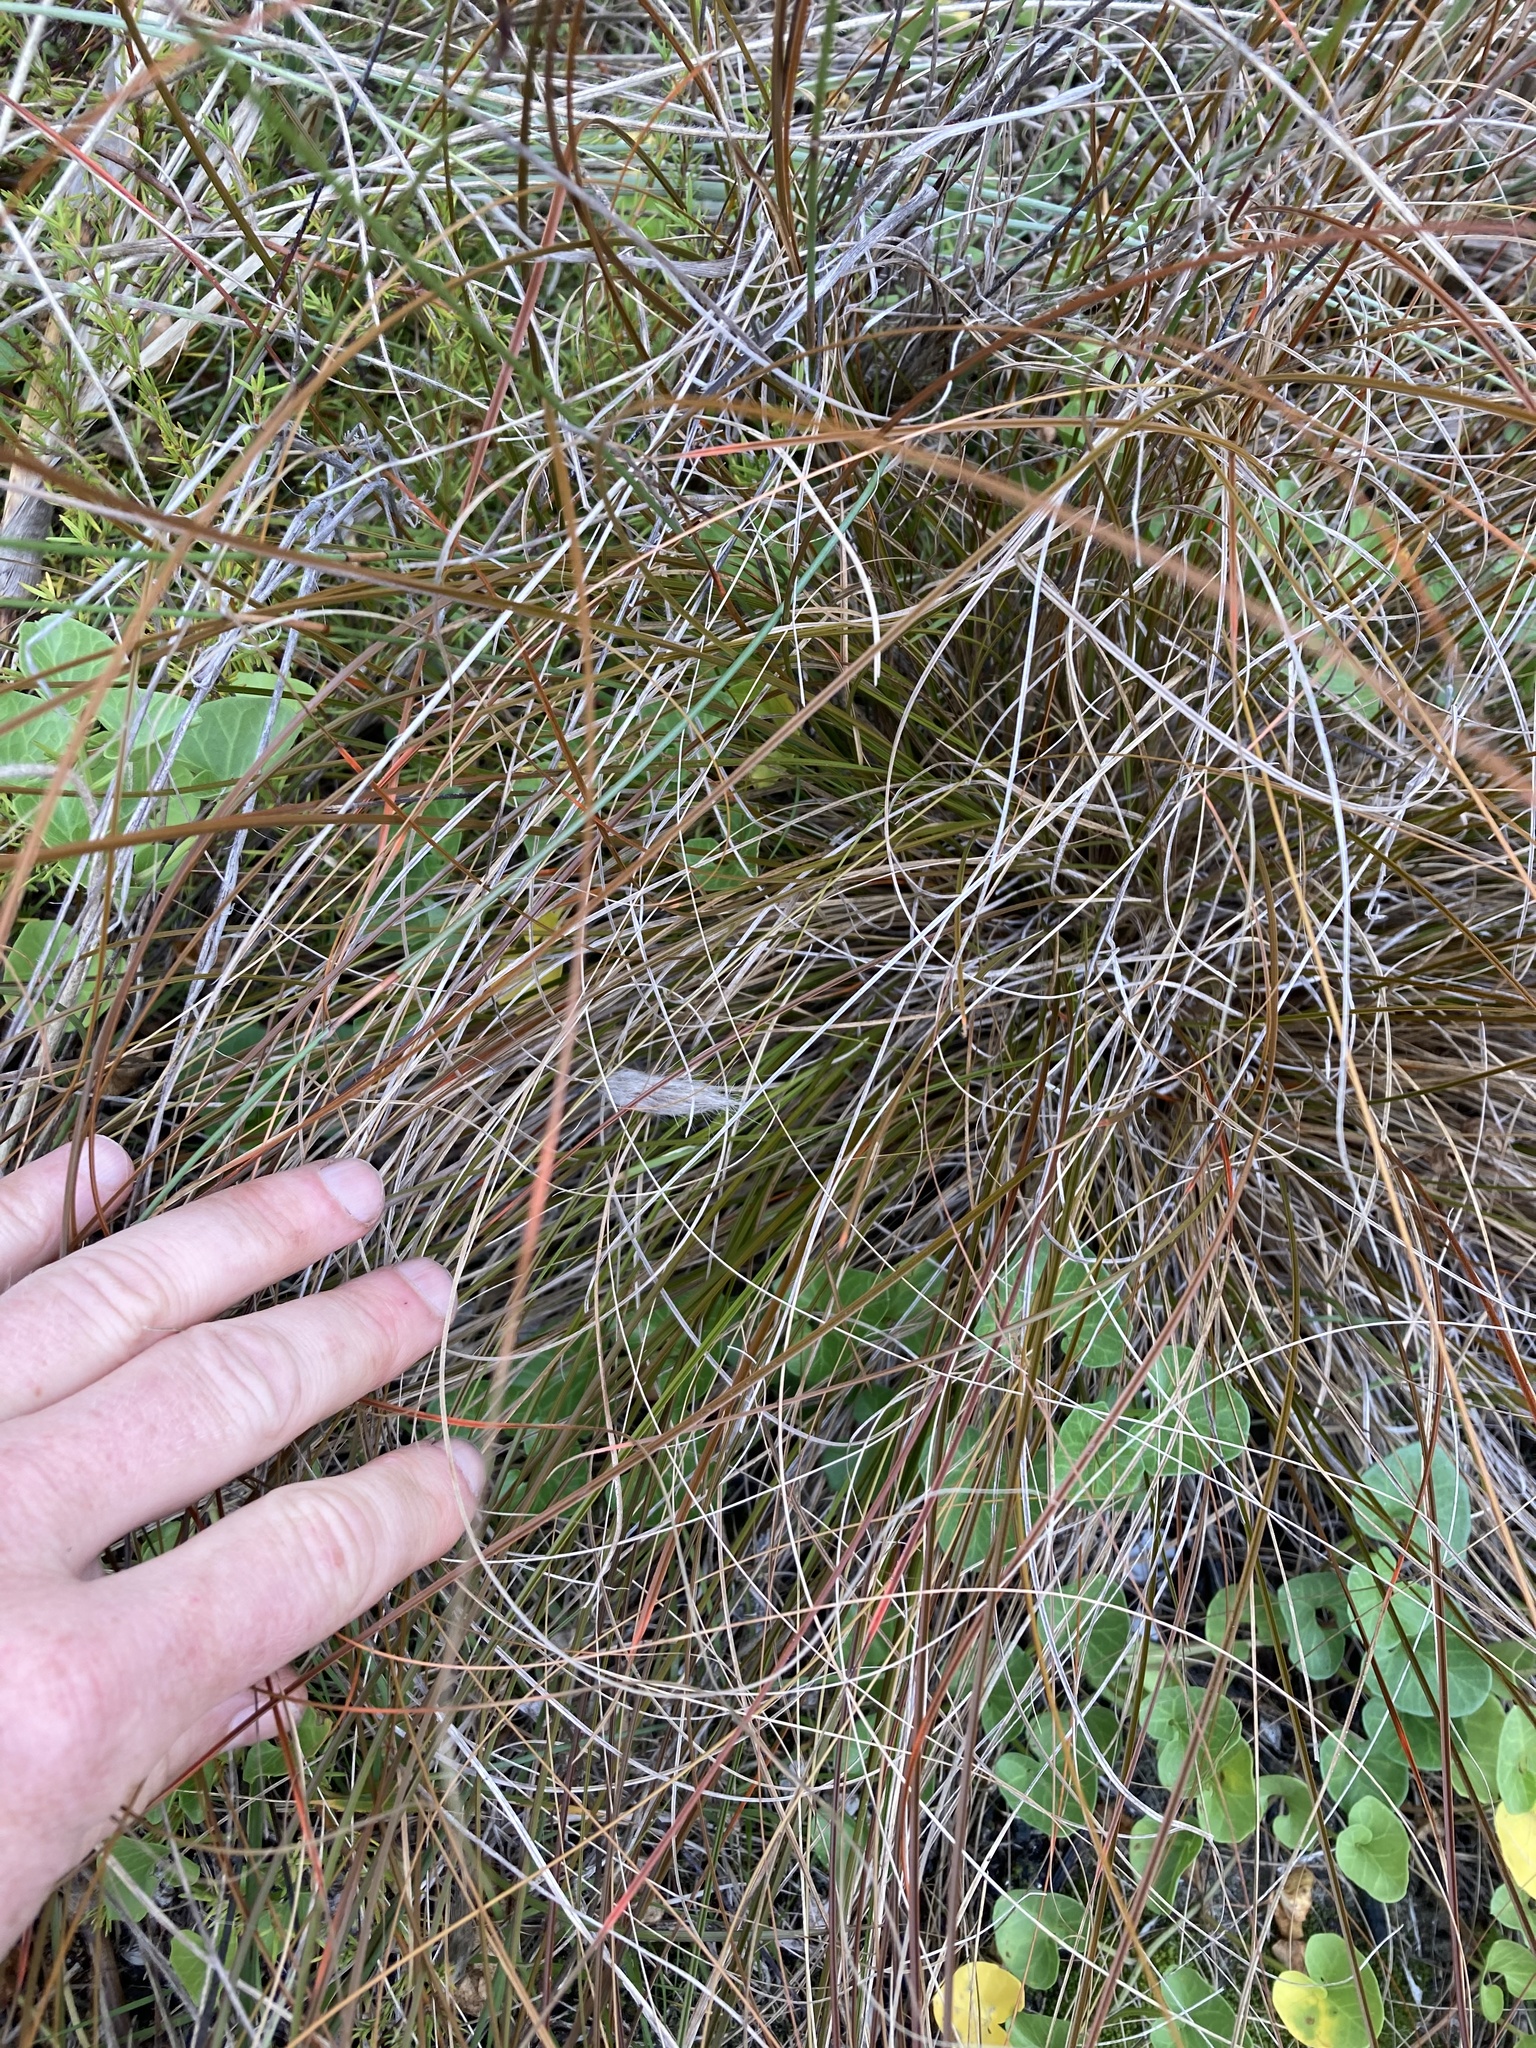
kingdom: Plantae
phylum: Tracheophyta
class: Liliopsida
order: Poales
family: Cyperaceae
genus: Carex
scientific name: Carex testacea
